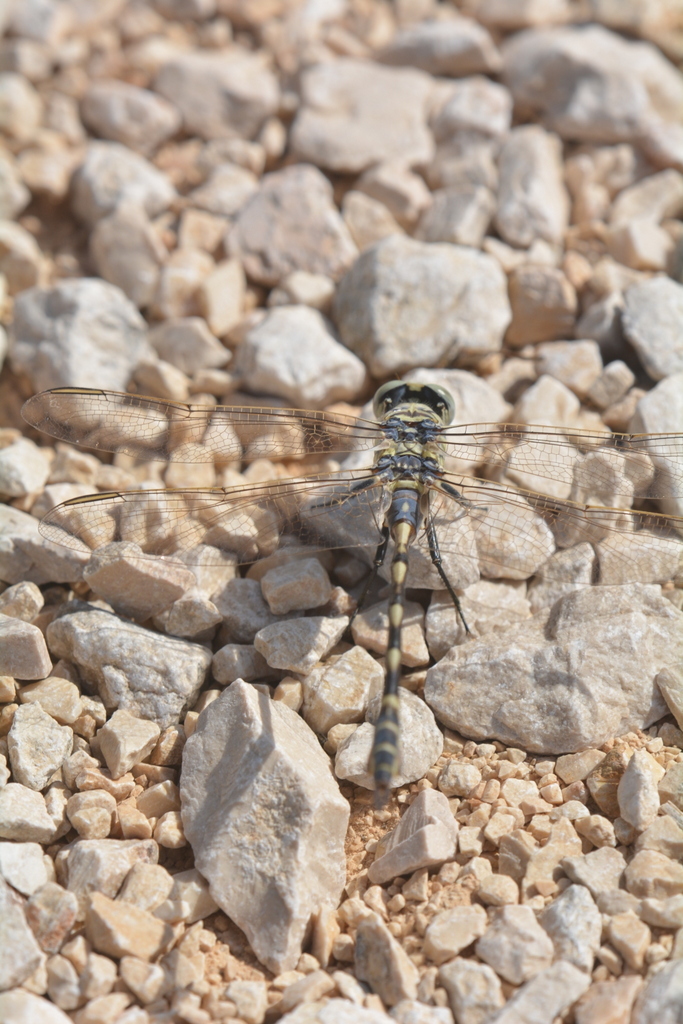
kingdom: Animalia
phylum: Arthropoda
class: Insecta
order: Odonata
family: Gomphidae
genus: Lindenia
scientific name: Lindenia tetraphylla
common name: Bladetail
